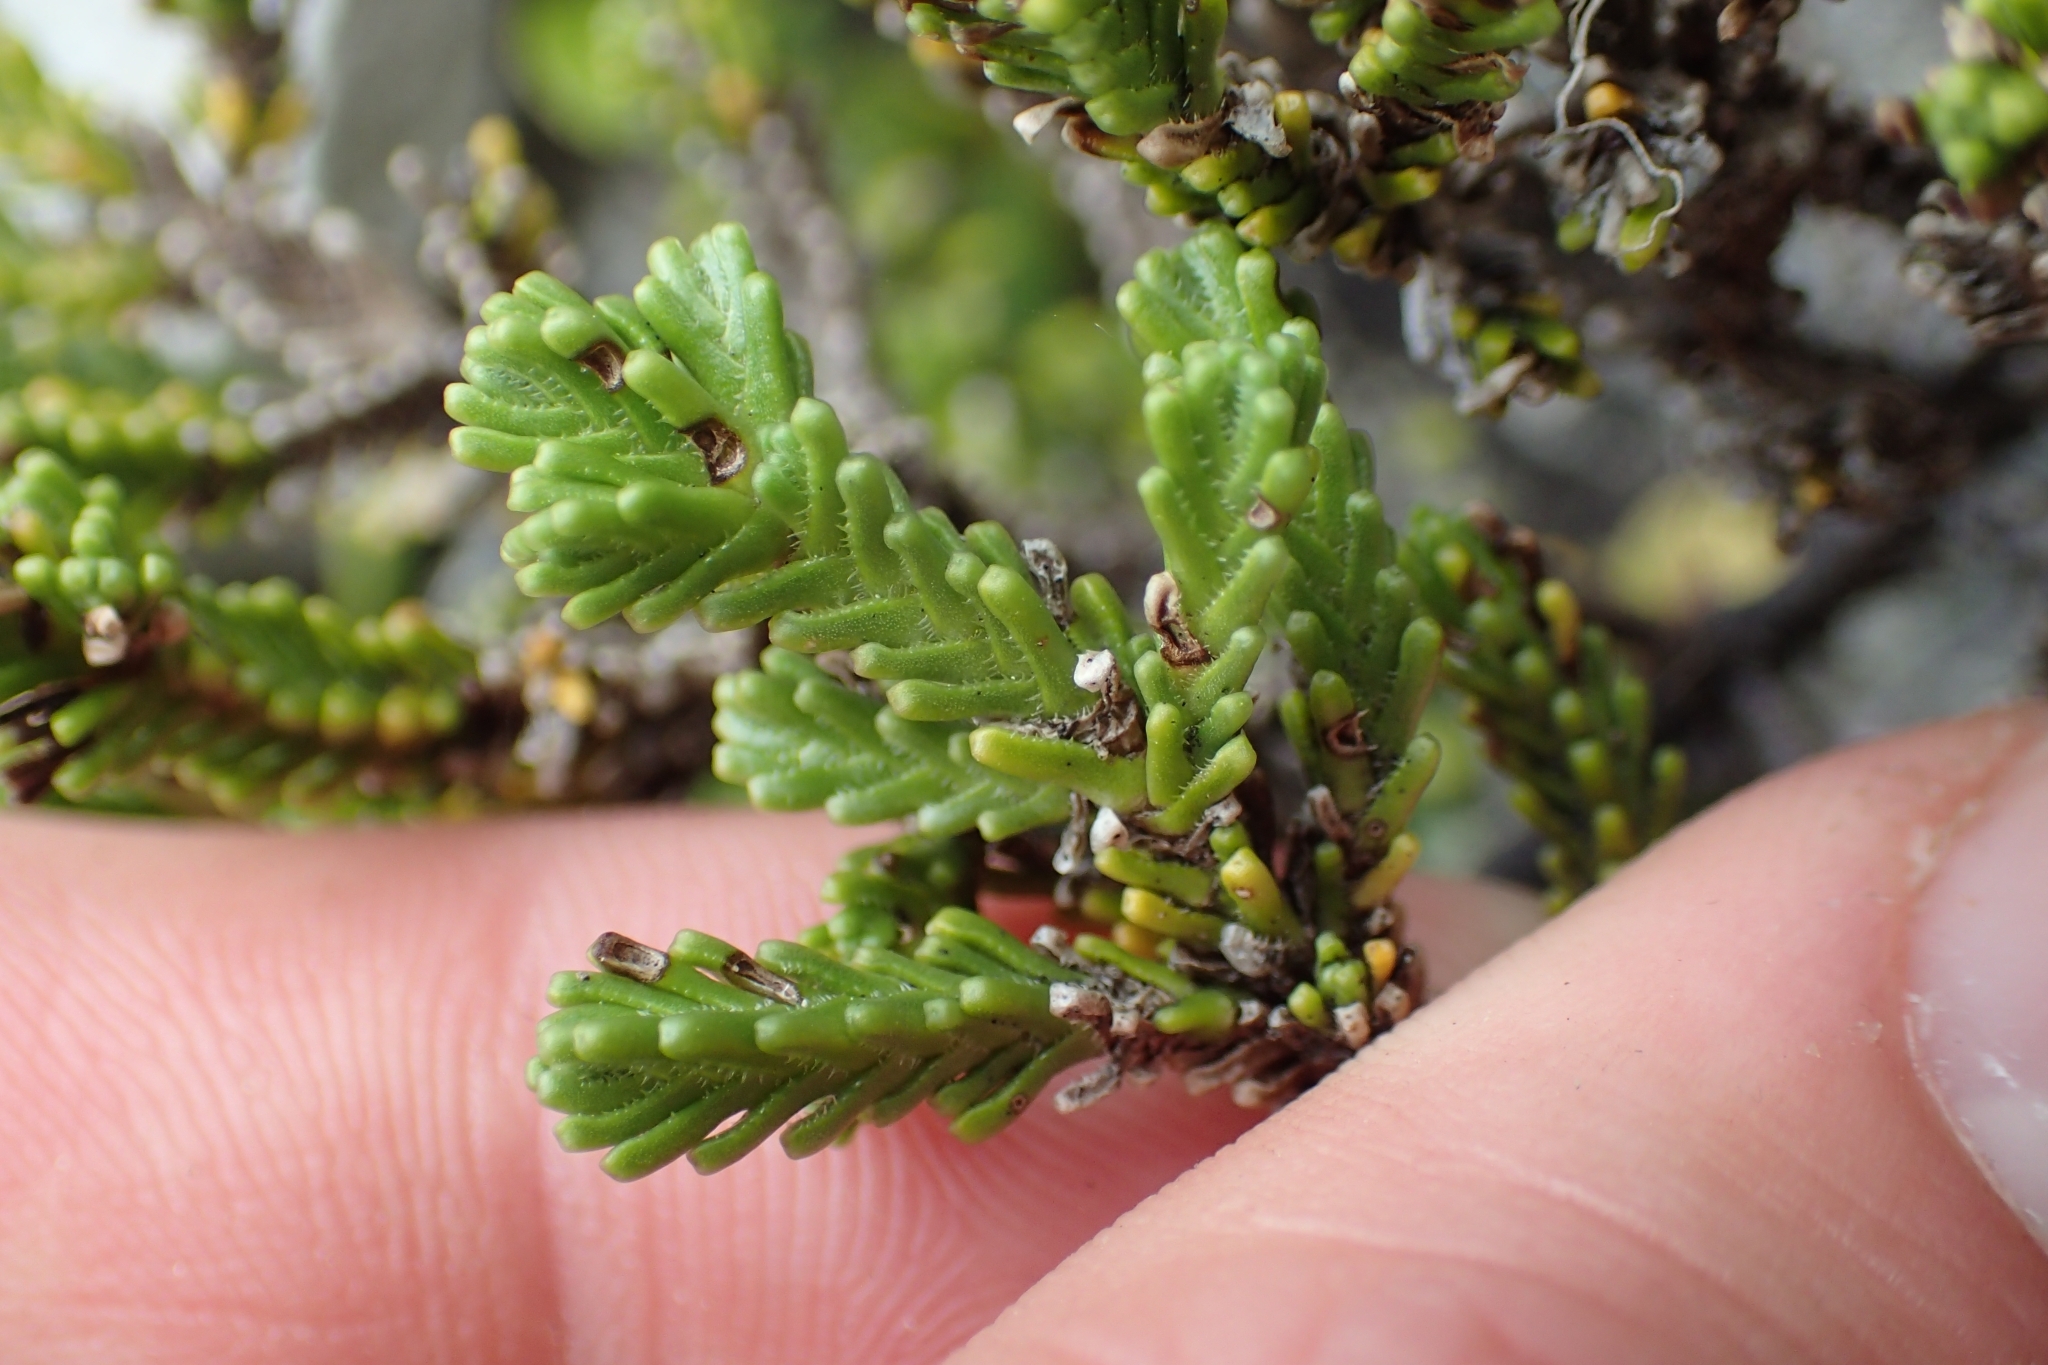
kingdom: Plantae
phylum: Tracheophyta
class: Magnoliopsida
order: Lamiales
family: Plantaginaceae
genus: Veronica
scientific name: Veronica hookeri
